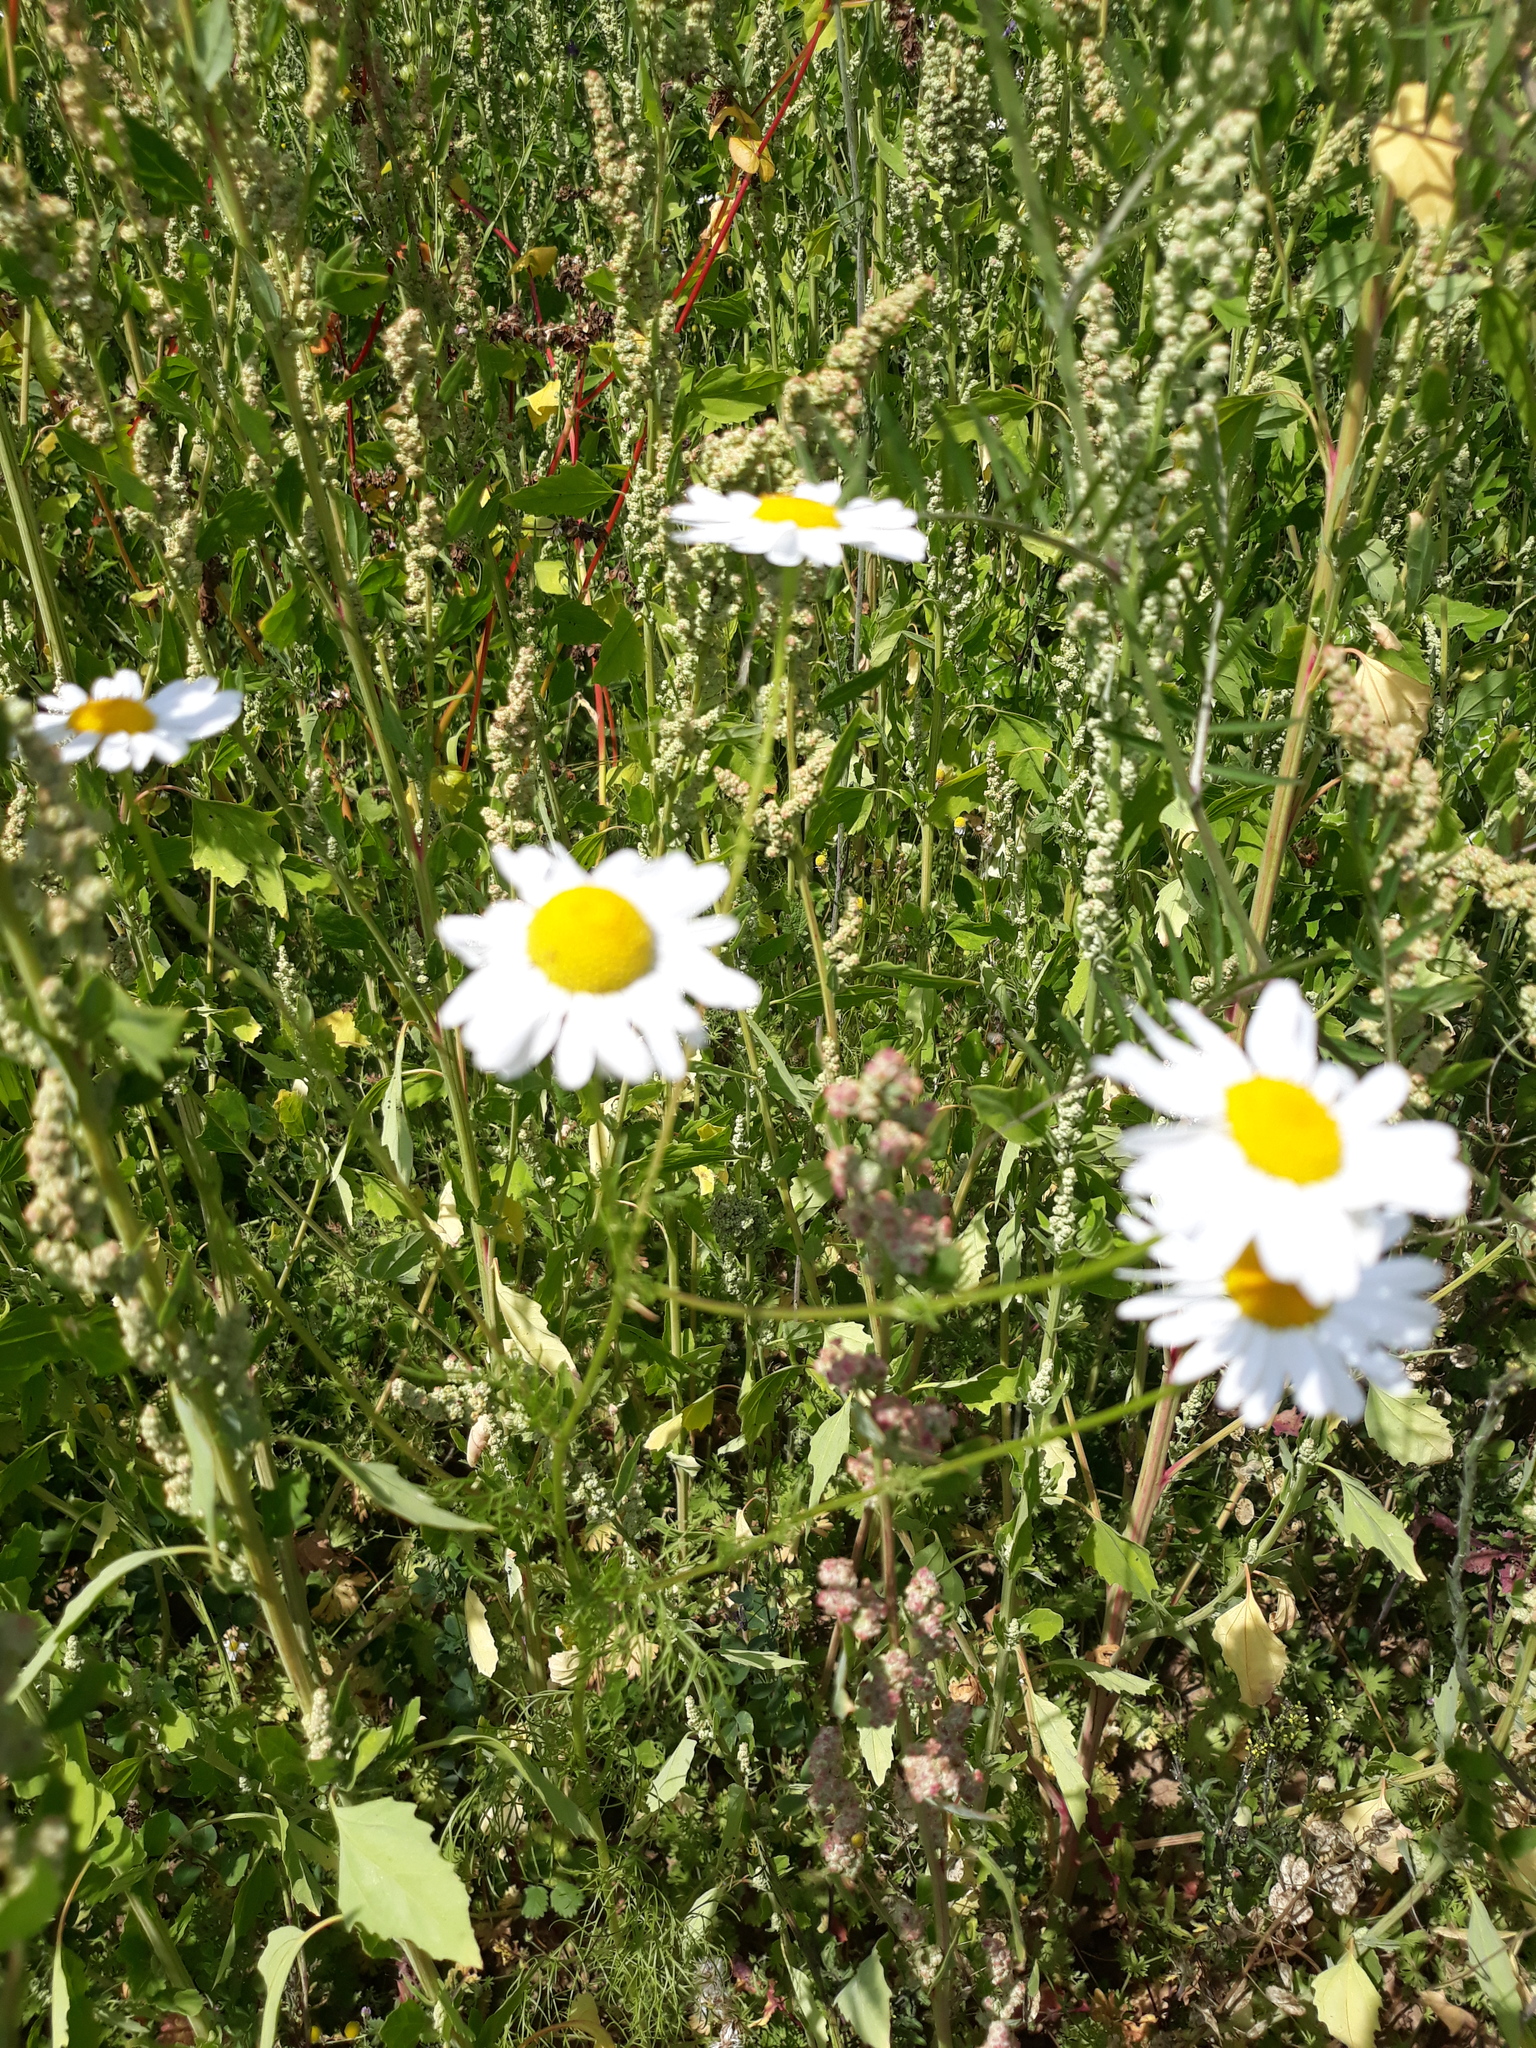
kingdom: Plantae
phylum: Tracheophyta
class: Magnoliopsida
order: Asterales
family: Asteraceae
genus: Tripleurospermum
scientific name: Tripleurospermum inodorum
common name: Scentless mayweed
